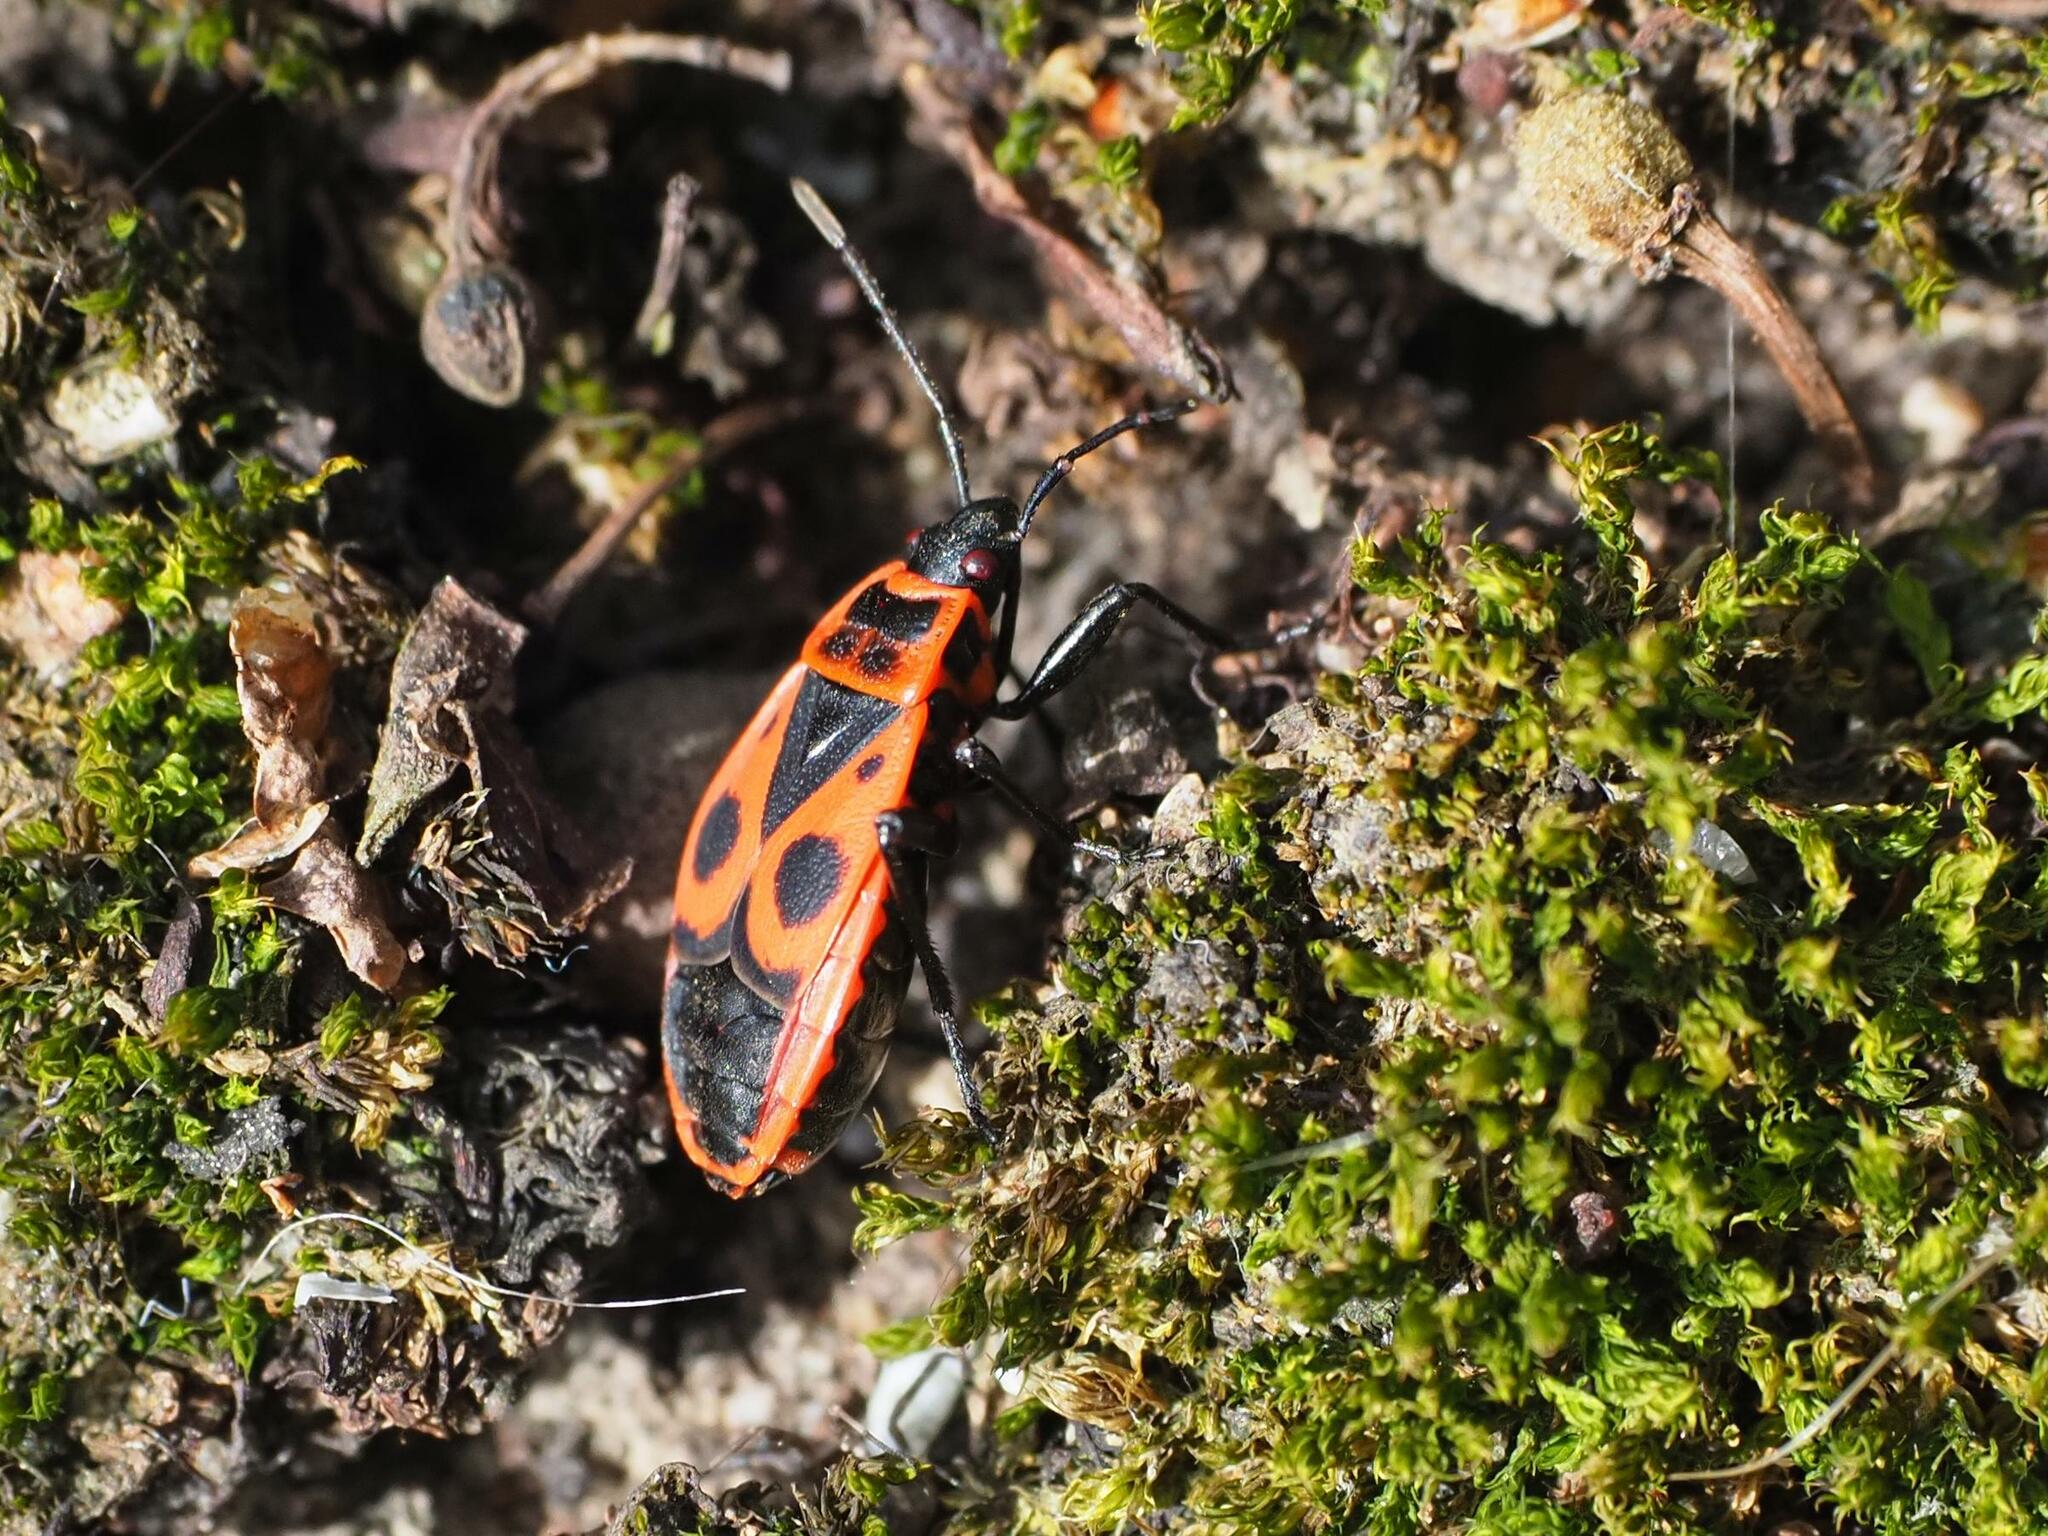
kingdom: Animalia
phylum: Arthropoda
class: Insecta
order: Hemiptera
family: Pyrrhocoridae
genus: Pyrrhocoris
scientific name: Pyrrhocoris apterus
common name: Firebug
